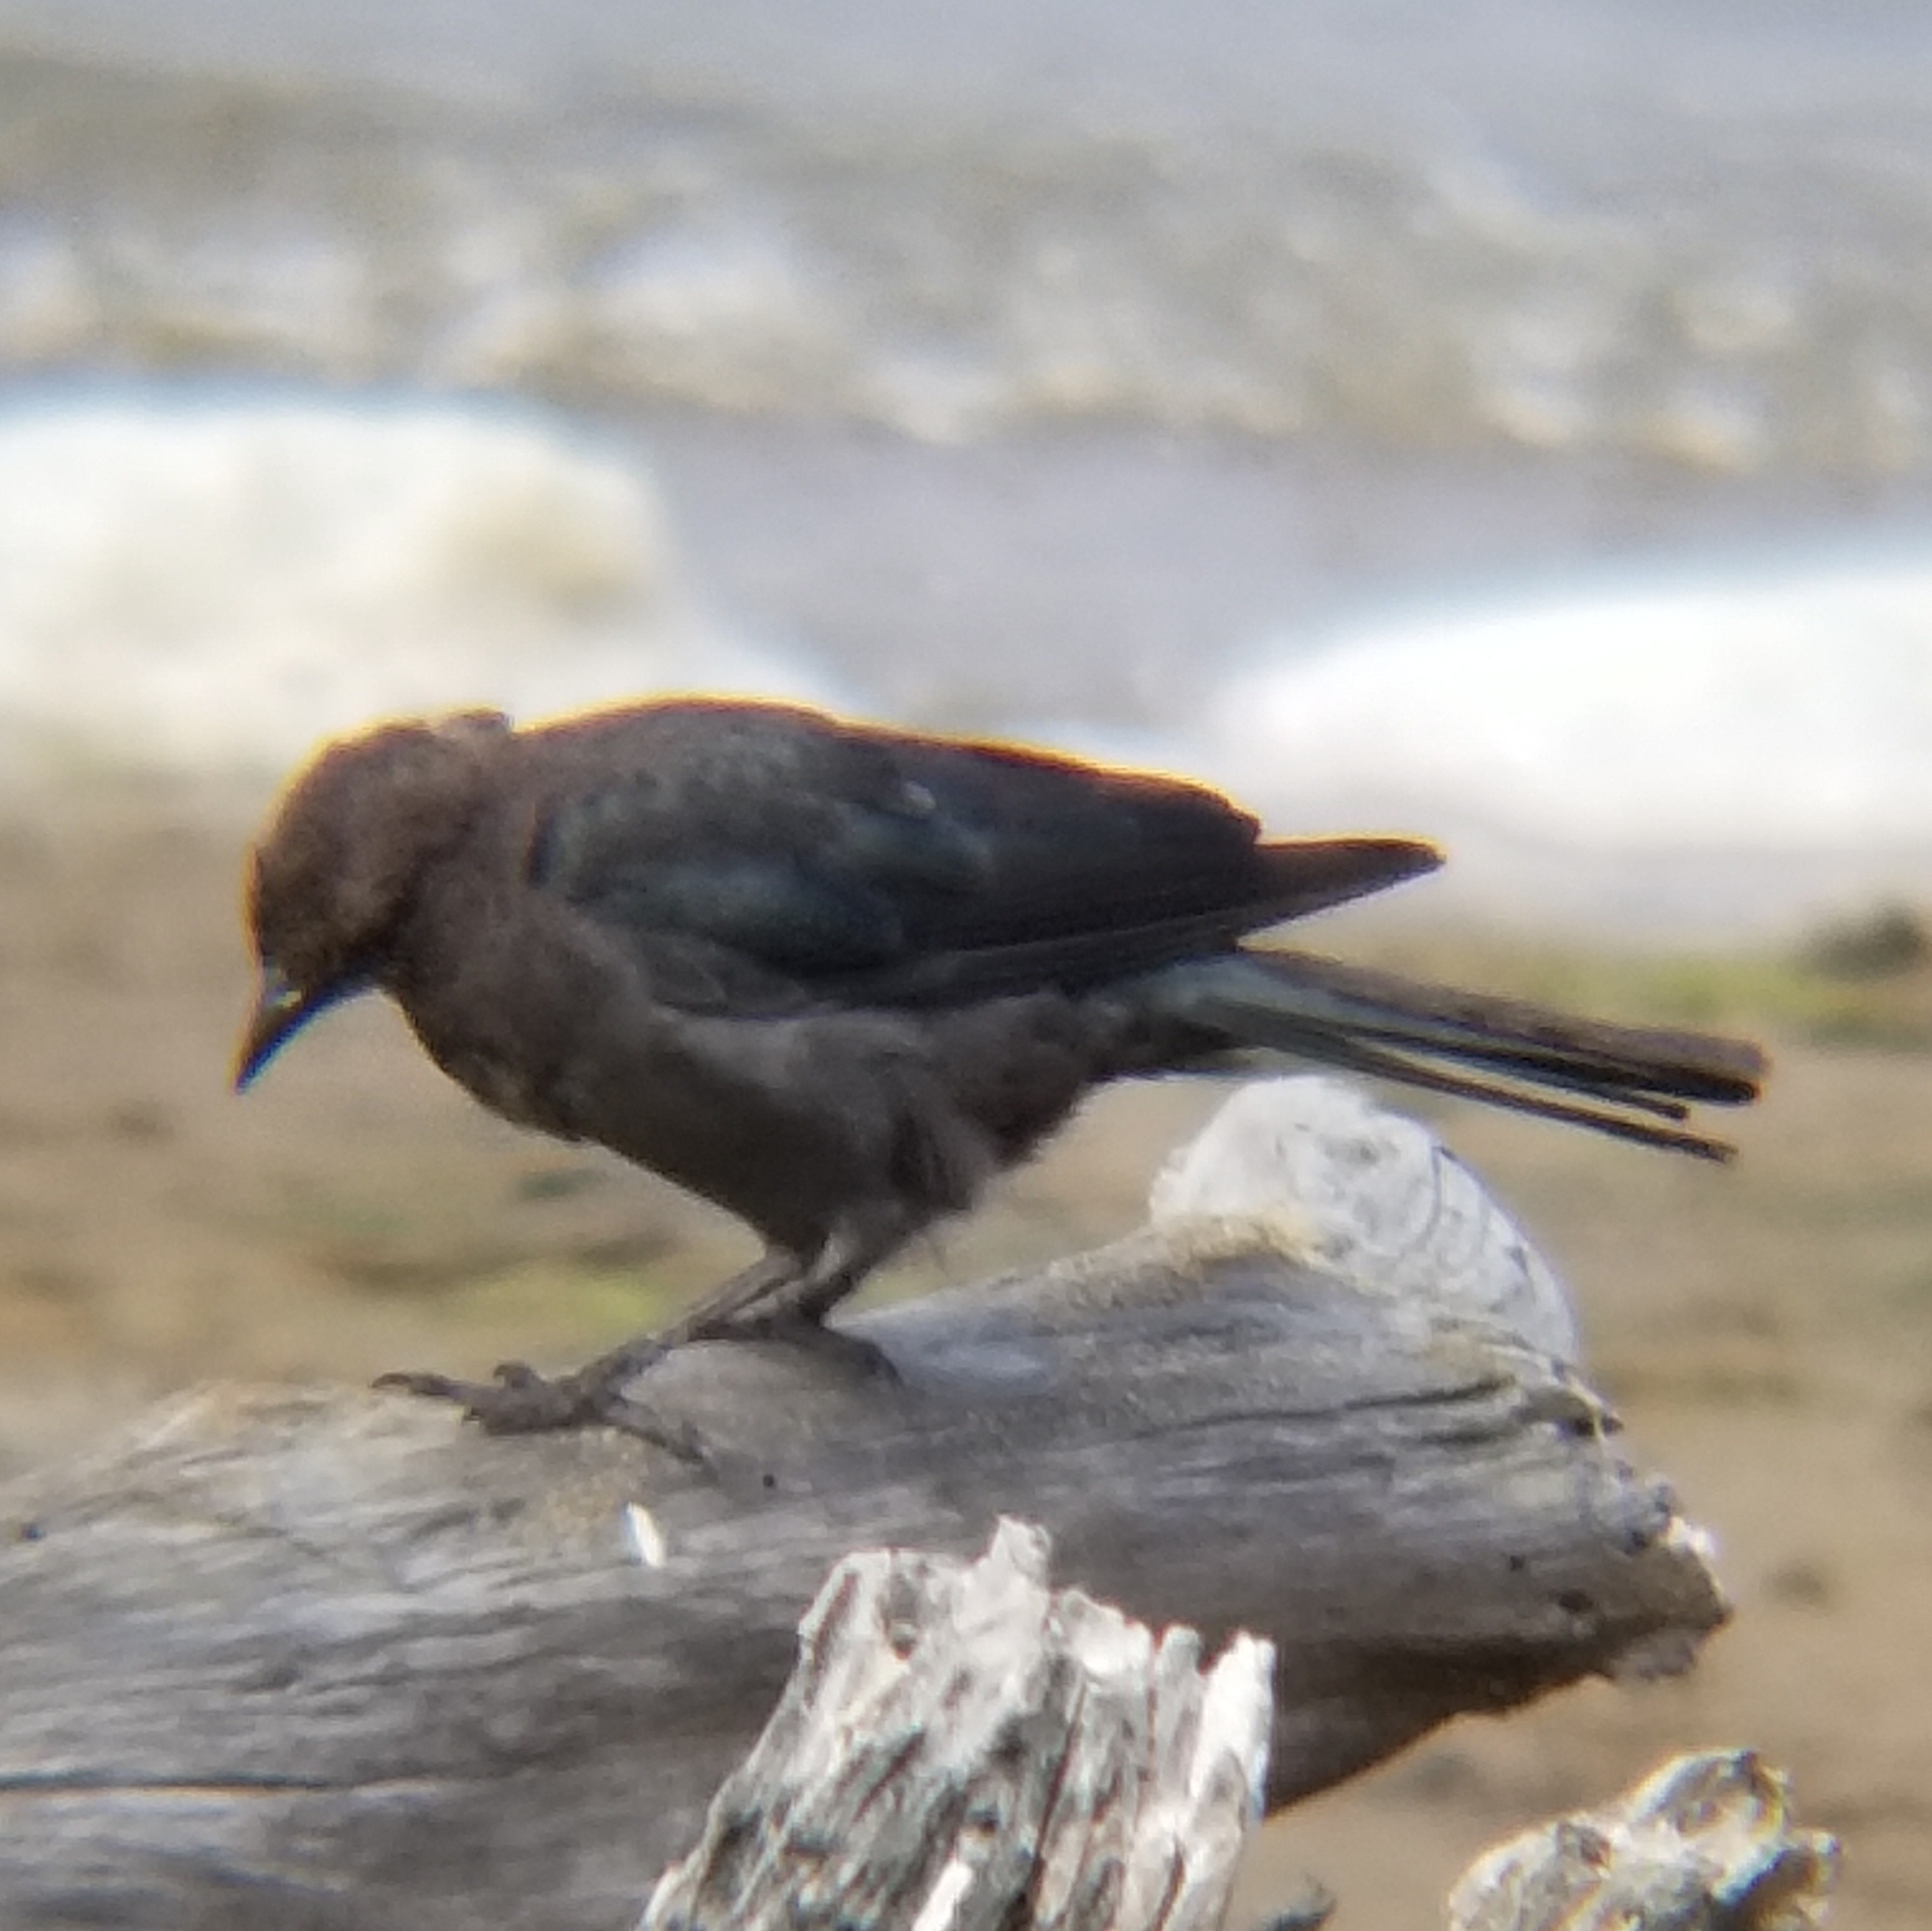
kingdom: Animalia
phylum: Chordata
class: Aves
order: Passeriformes
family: Icteridae
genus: Euphagus
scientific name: Euphagus cyanocephalus
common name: Brewer's blackbird
